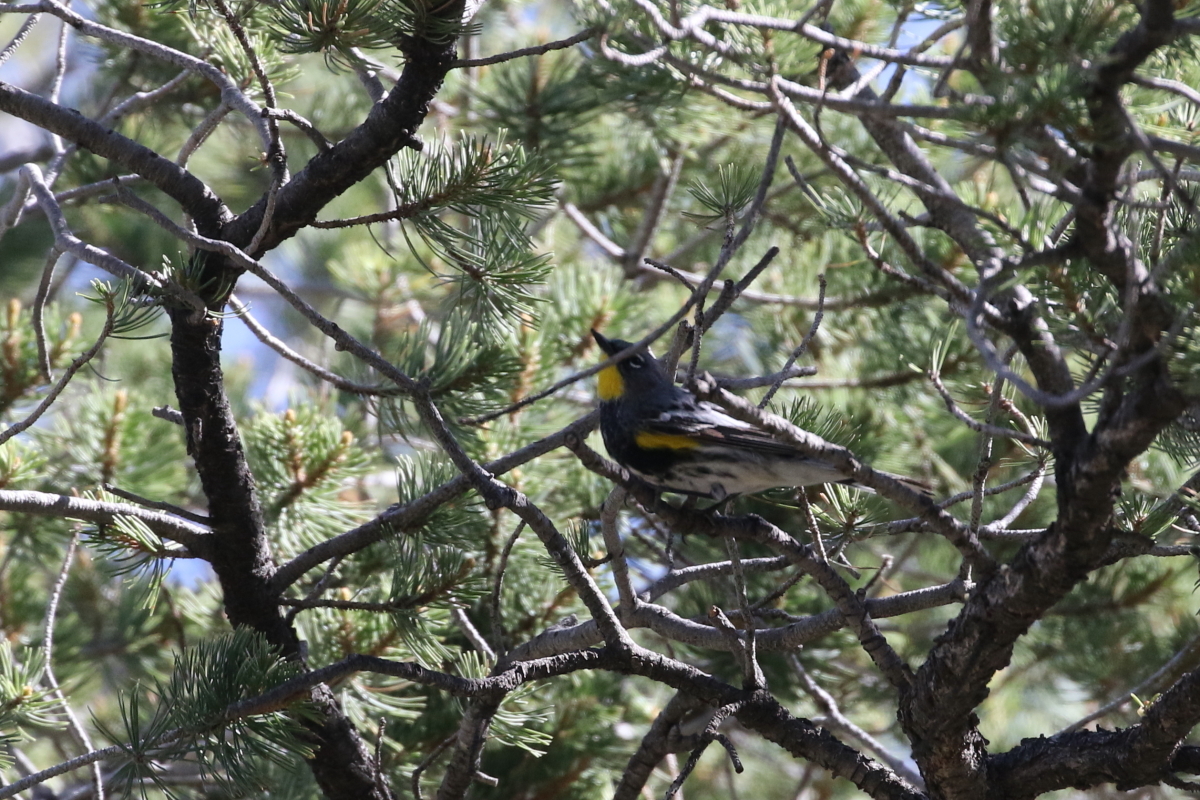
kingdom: Animalia
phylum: Chordata
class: Aves
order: Passeriformes
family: Parulidae
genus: Setophaga
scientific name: Setophaga auduboni
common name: Audubon's warbler
